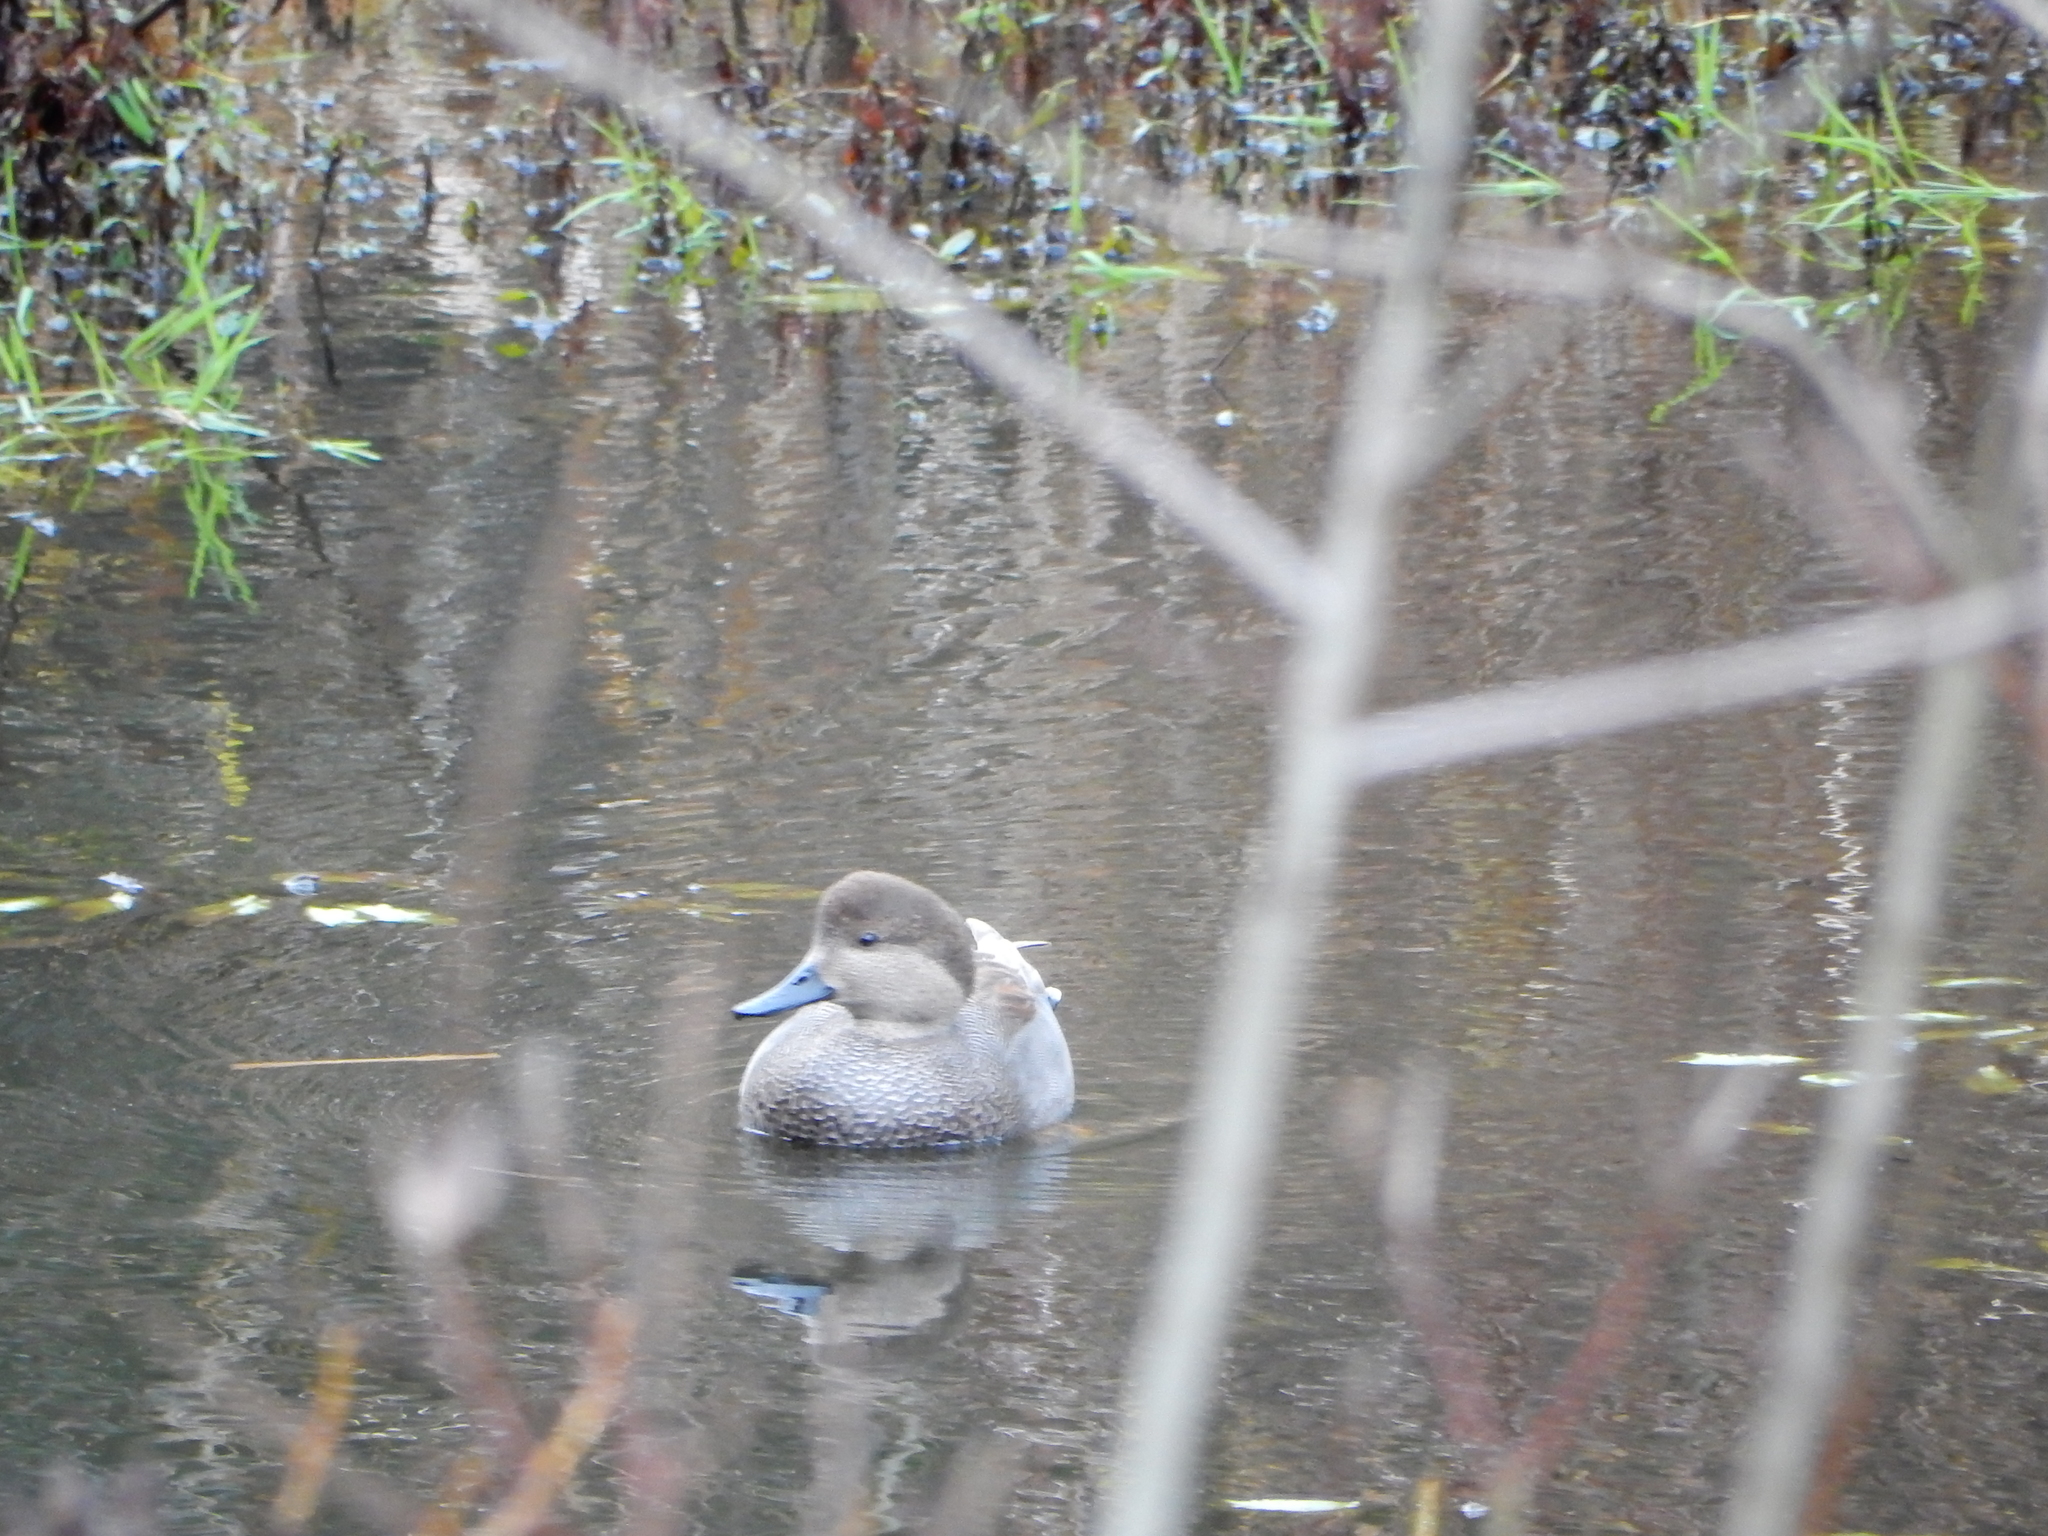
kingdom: Animalia
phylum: Chordata
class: Aves
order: Anseriformes
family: Anatidae
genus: Mareca
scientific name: Mareca strepera
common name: Gadwall
